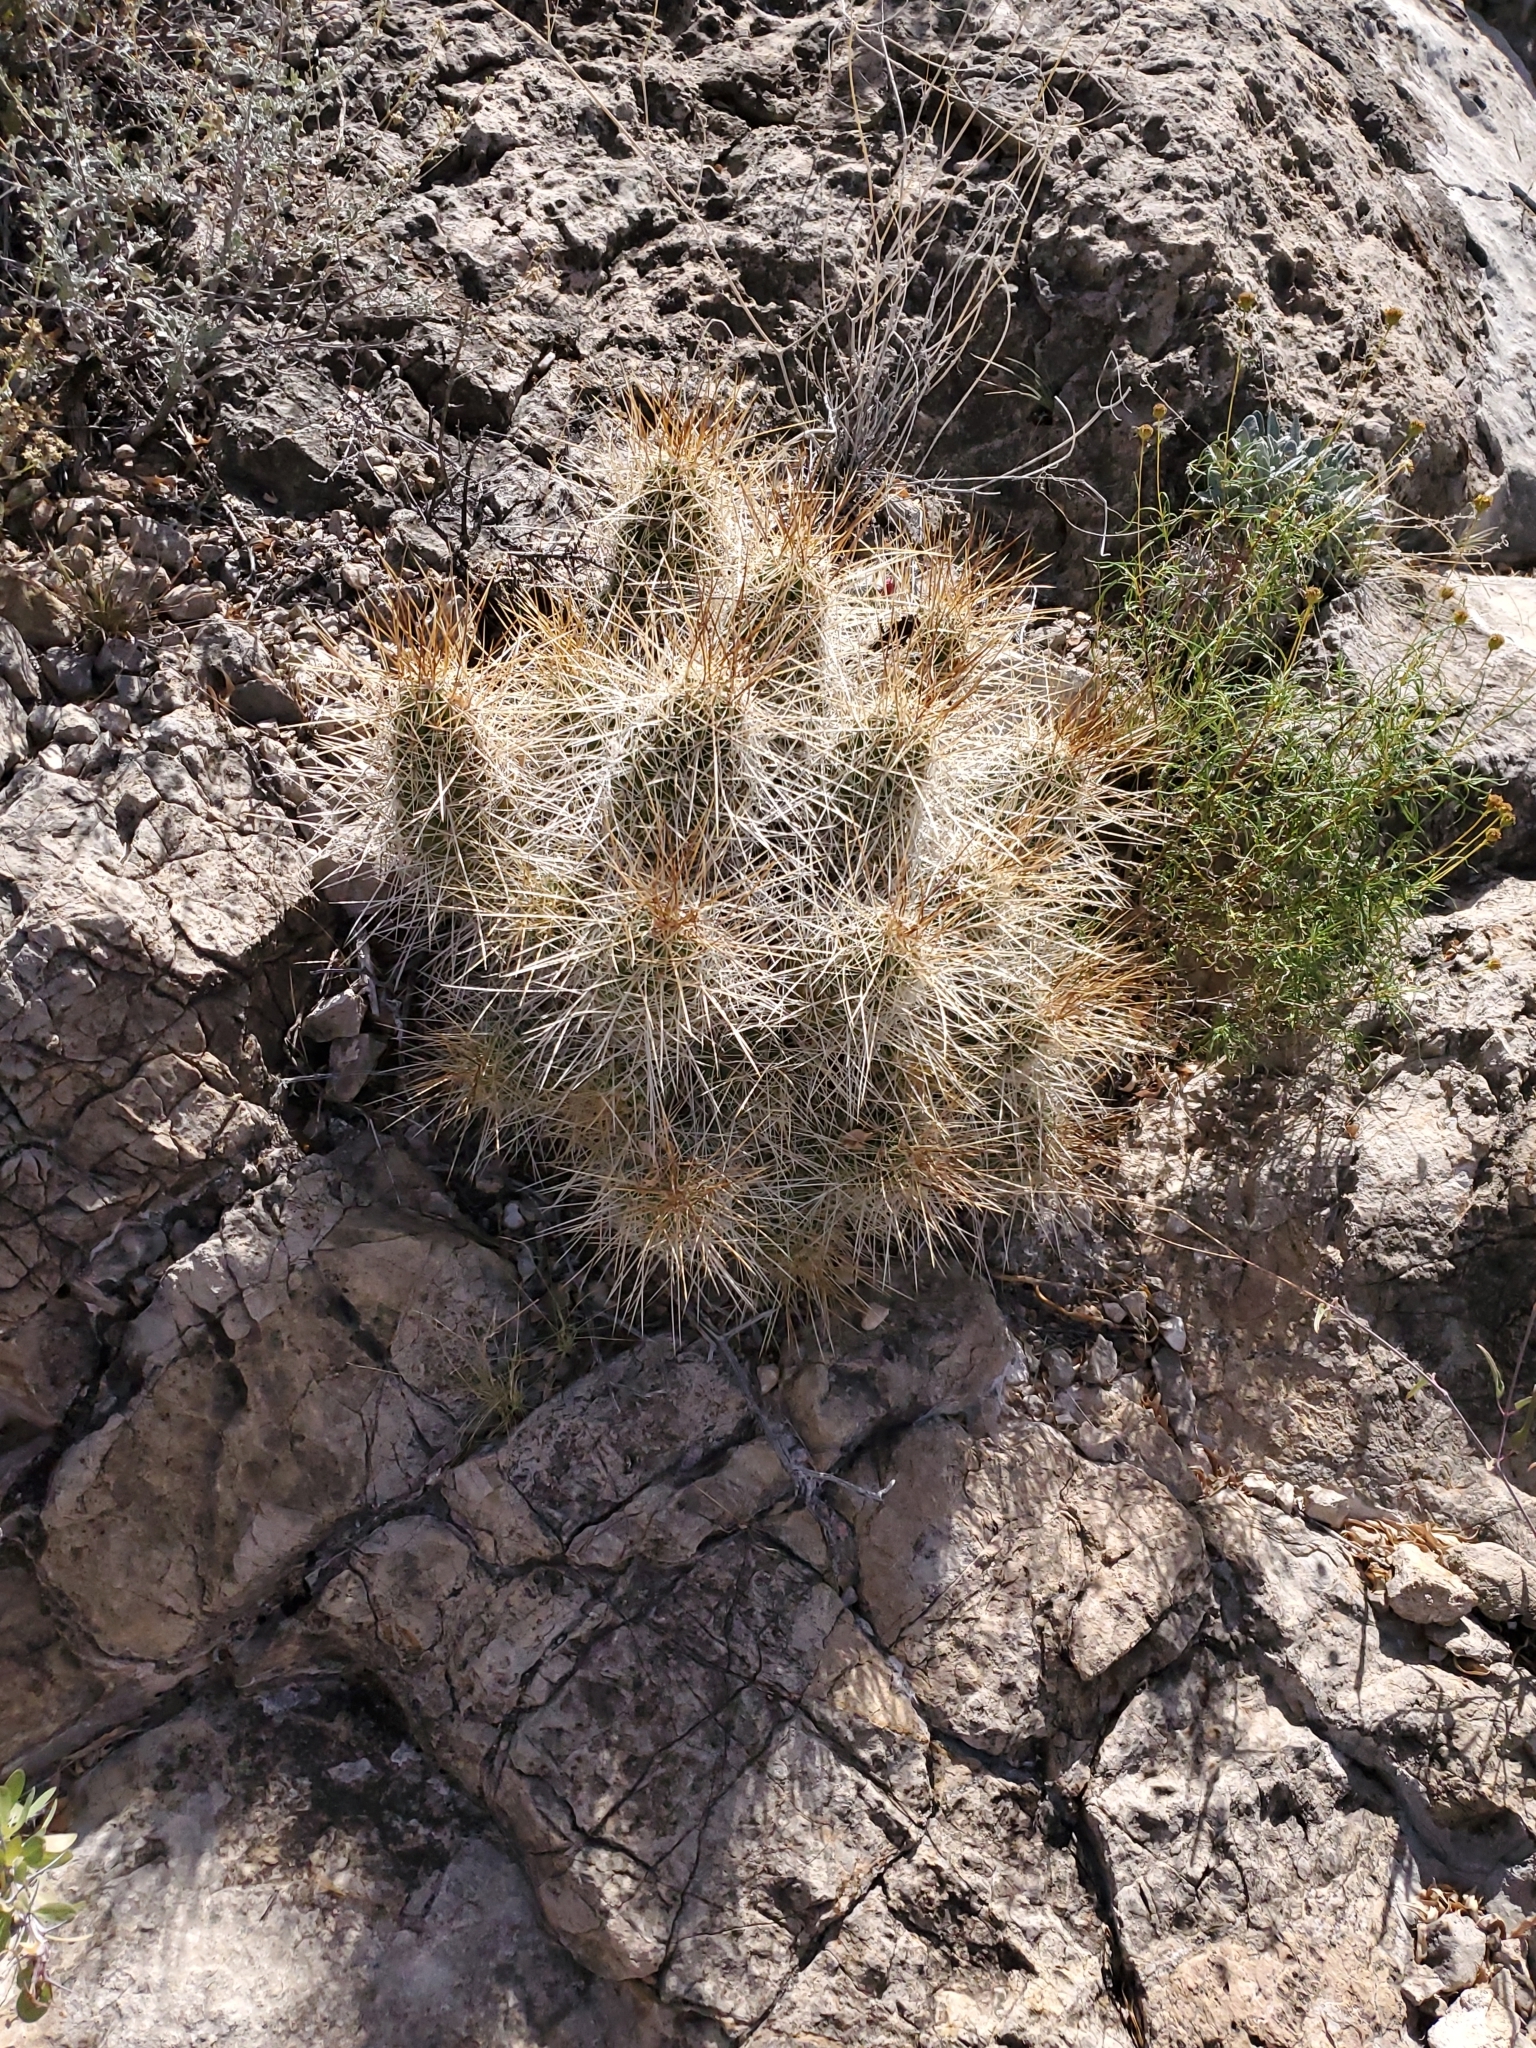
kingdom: Plantae
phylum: Tracheophyta
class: Magnoliopsida
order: Caryophyllales
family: Cactaceae
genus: Echinocereus
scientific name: Echinocereus stramineus
